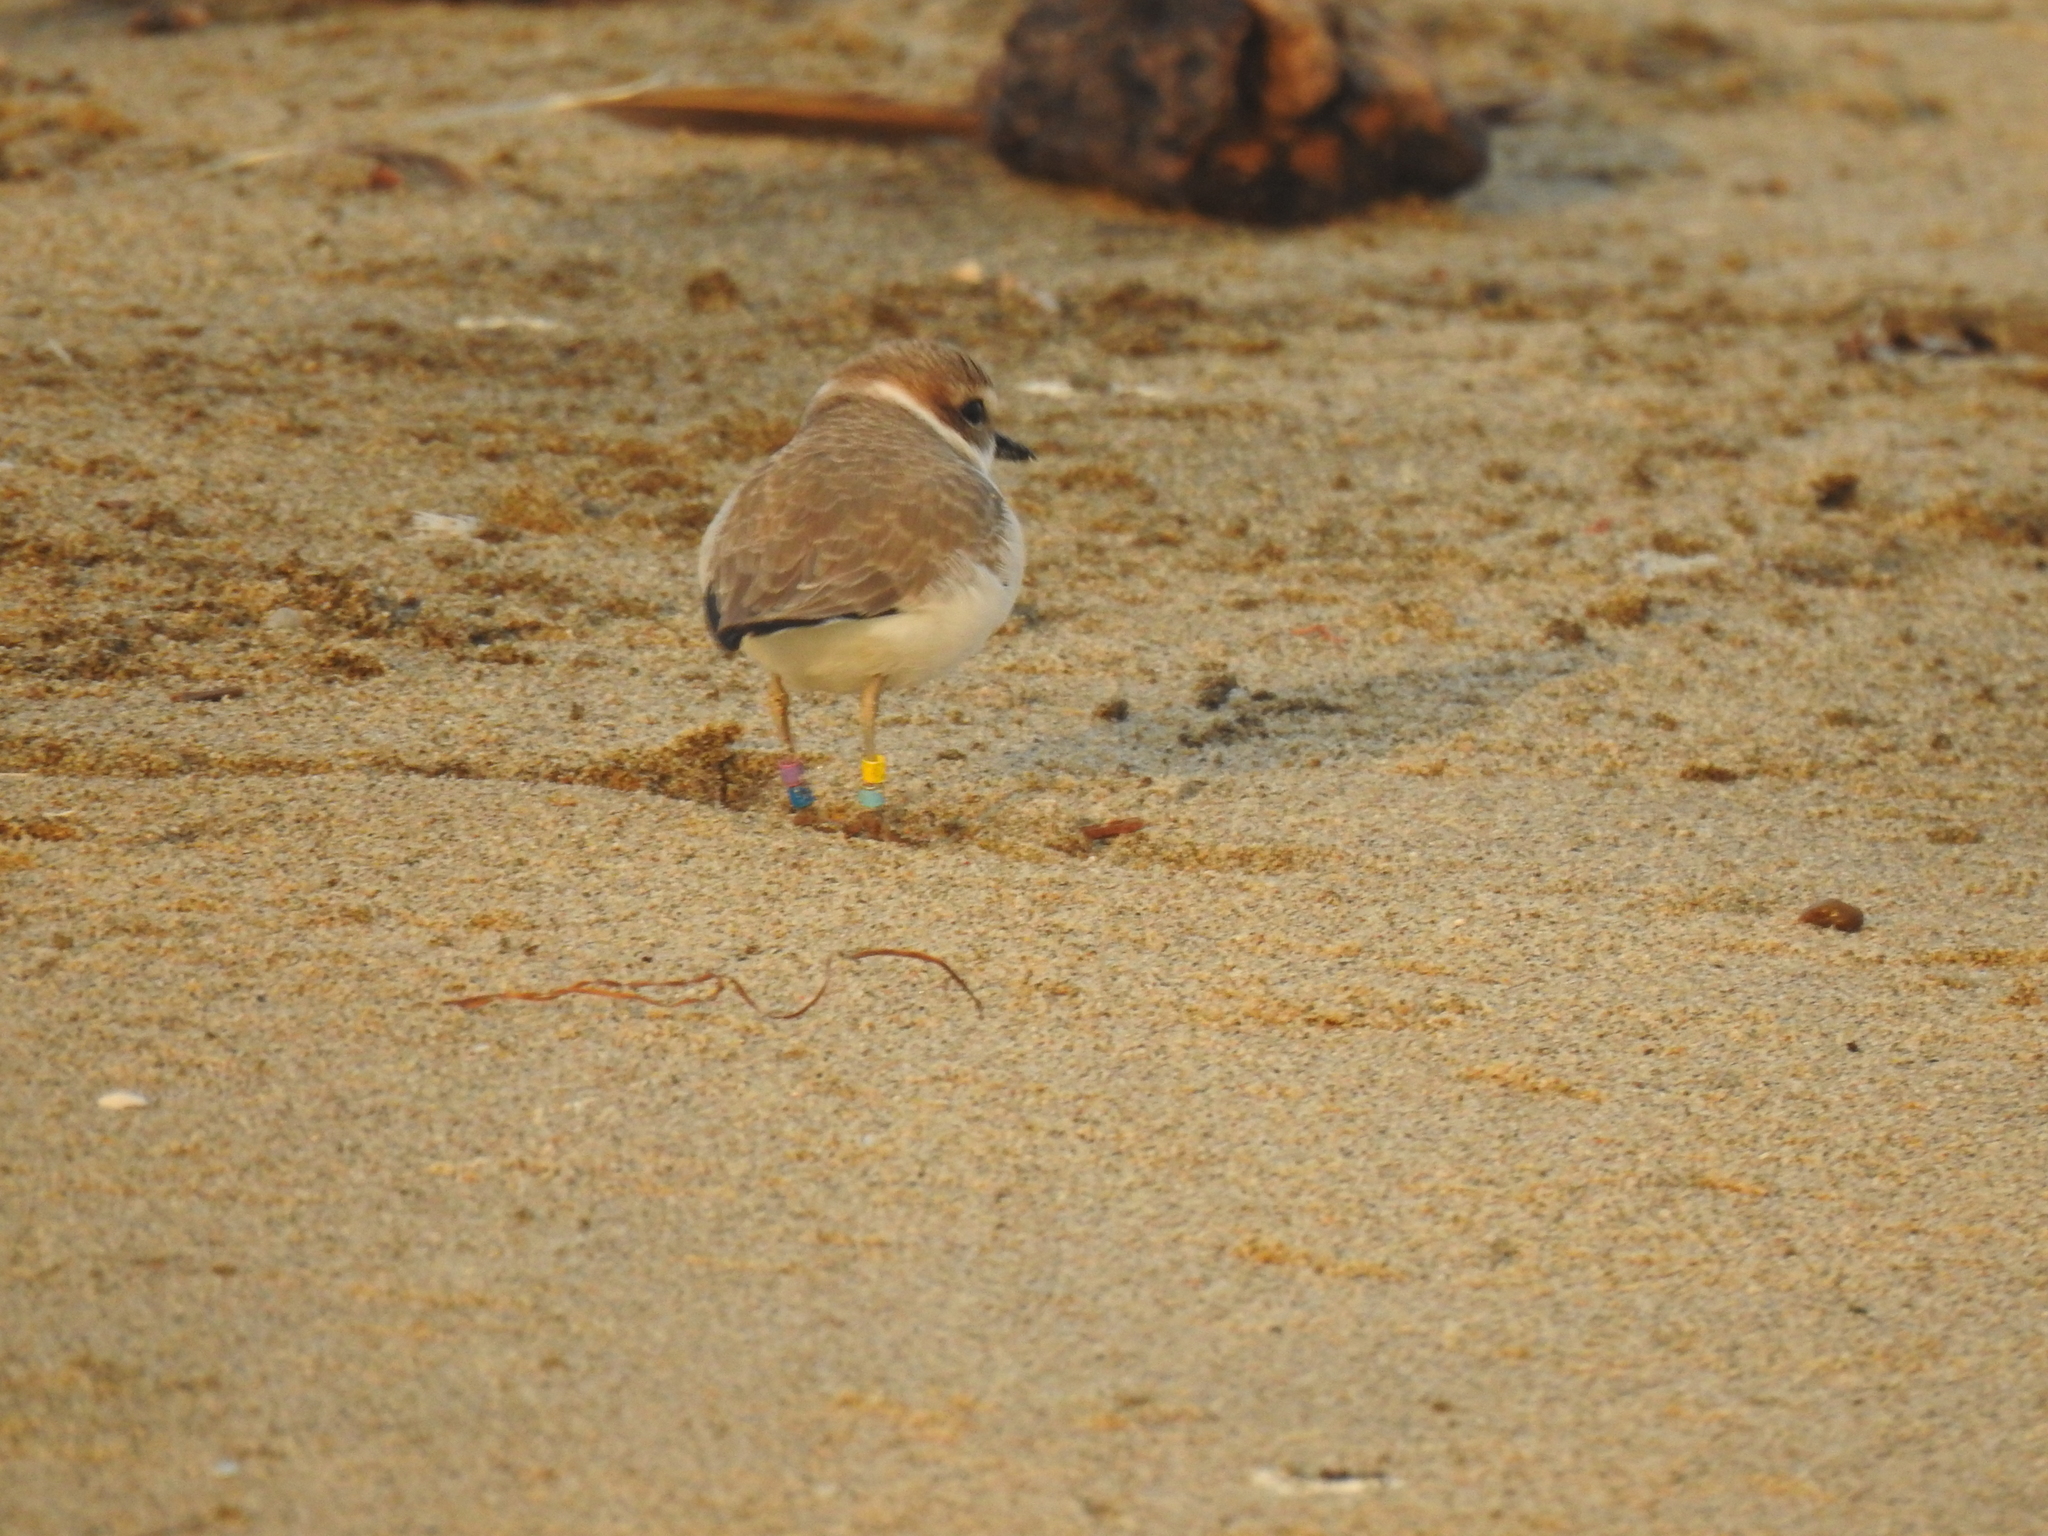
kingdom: Animalia
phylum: Chordata
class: Aves
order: Charadriiformes
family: Charadriidae
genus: Anarhynchus
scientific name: Anarhynchus
